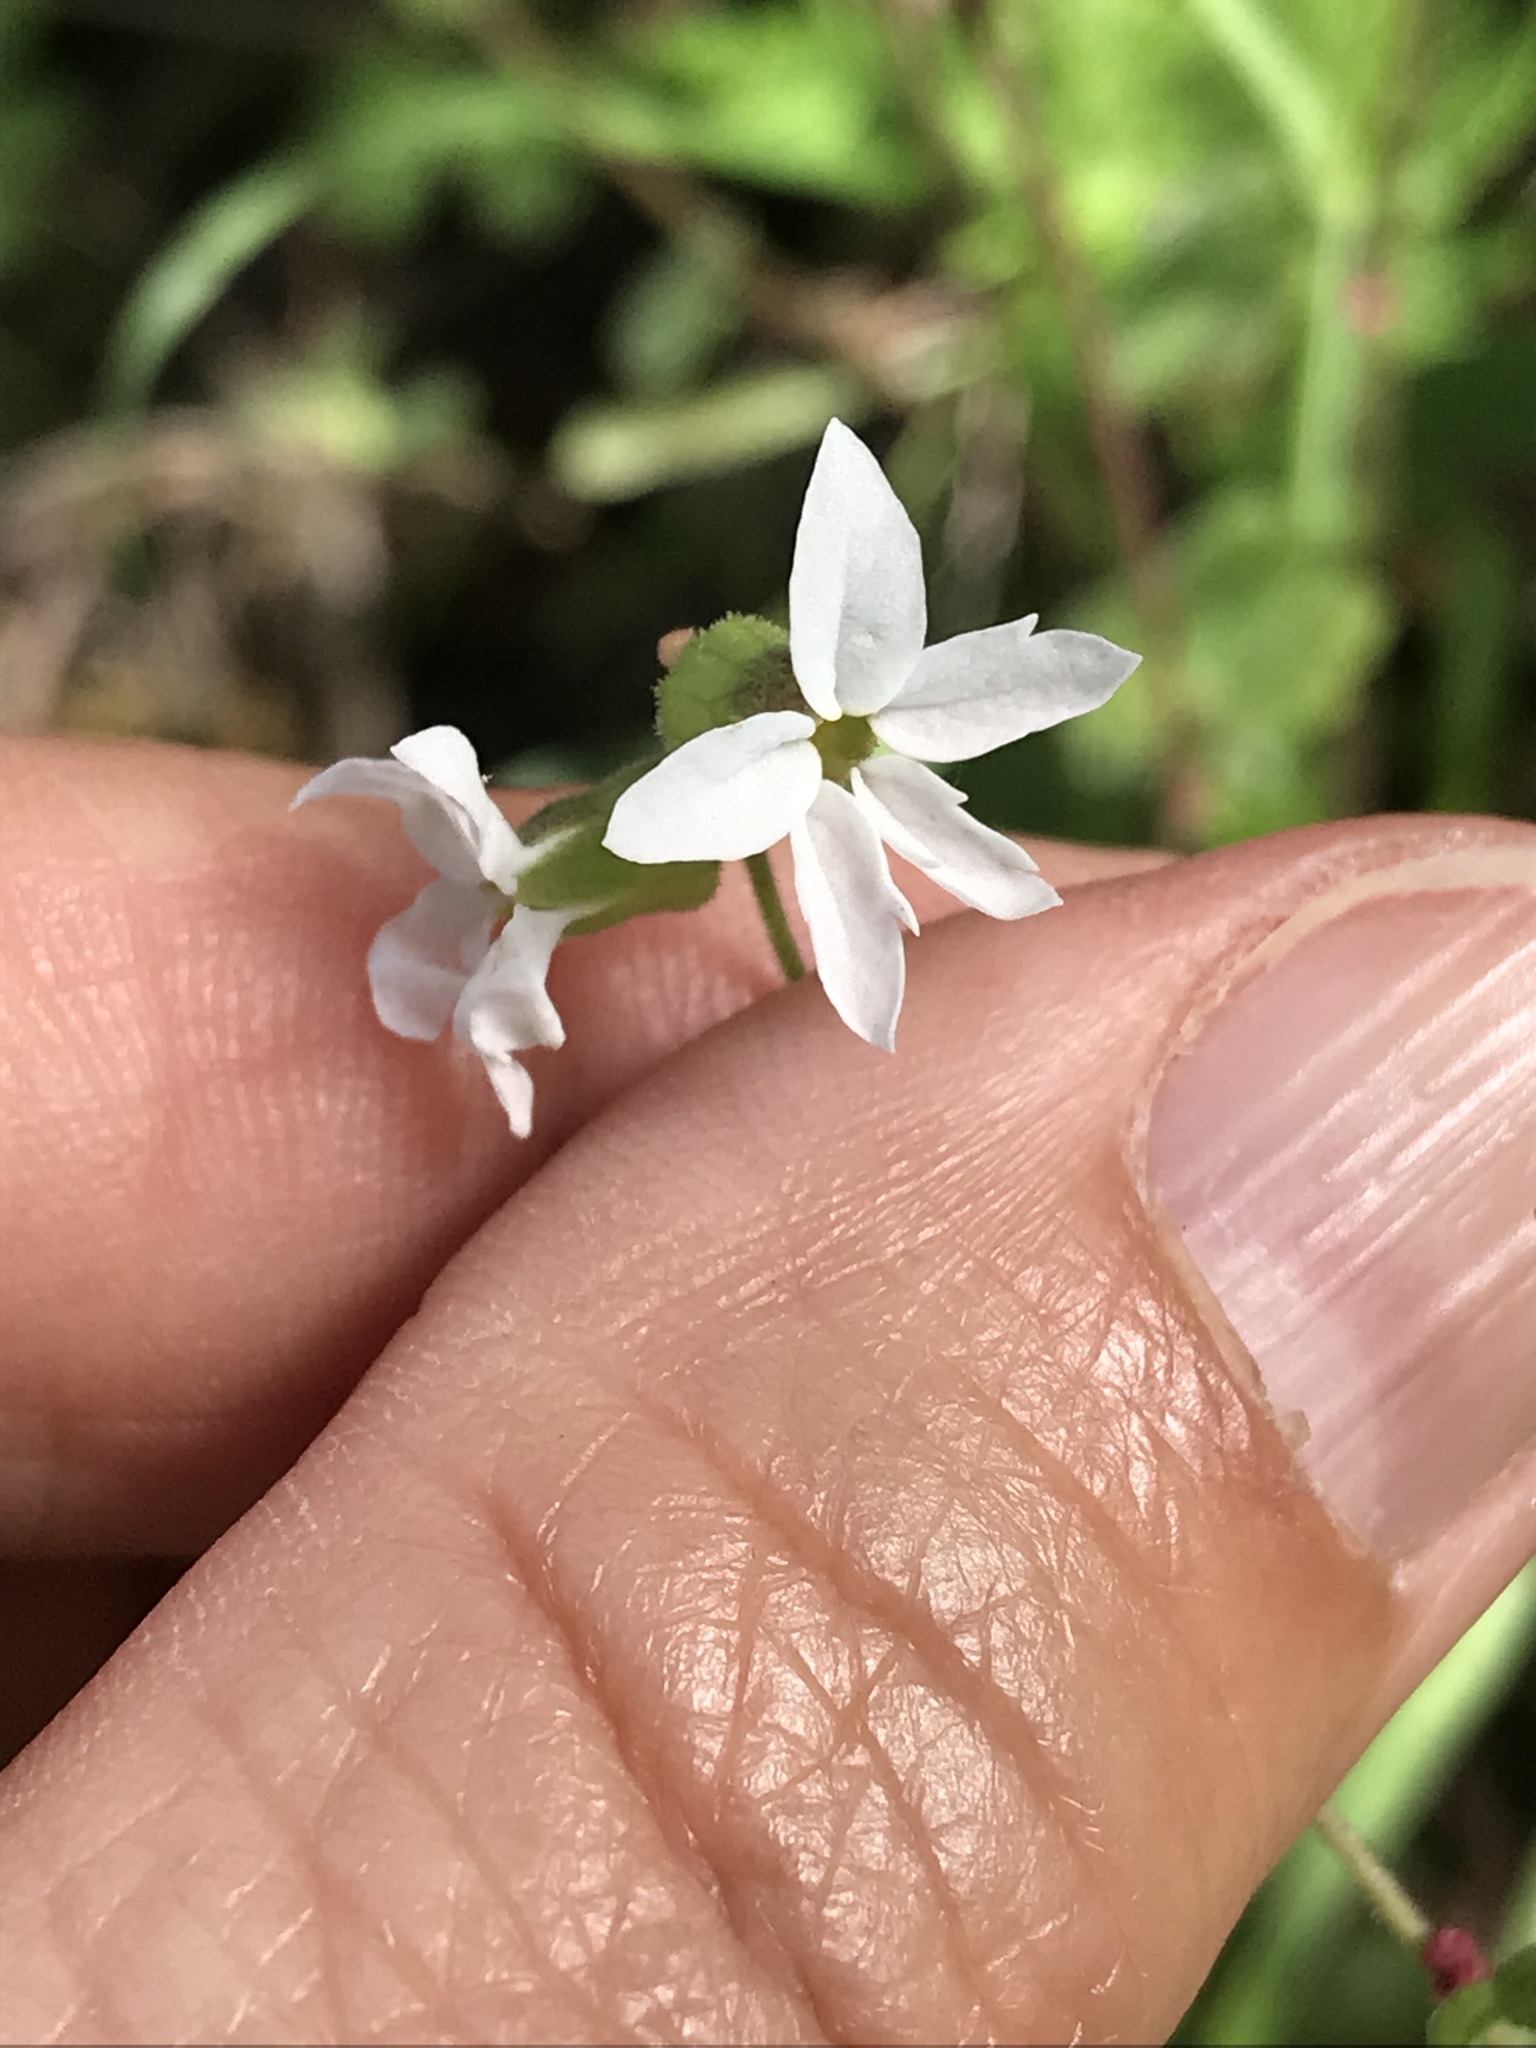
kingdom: Plantae
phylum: Tracheophyta
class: Magnoliopsida
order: Saxifragales
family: Saxifragaceae
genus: Lithophragma
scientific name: Lithophragma heterophyllum
